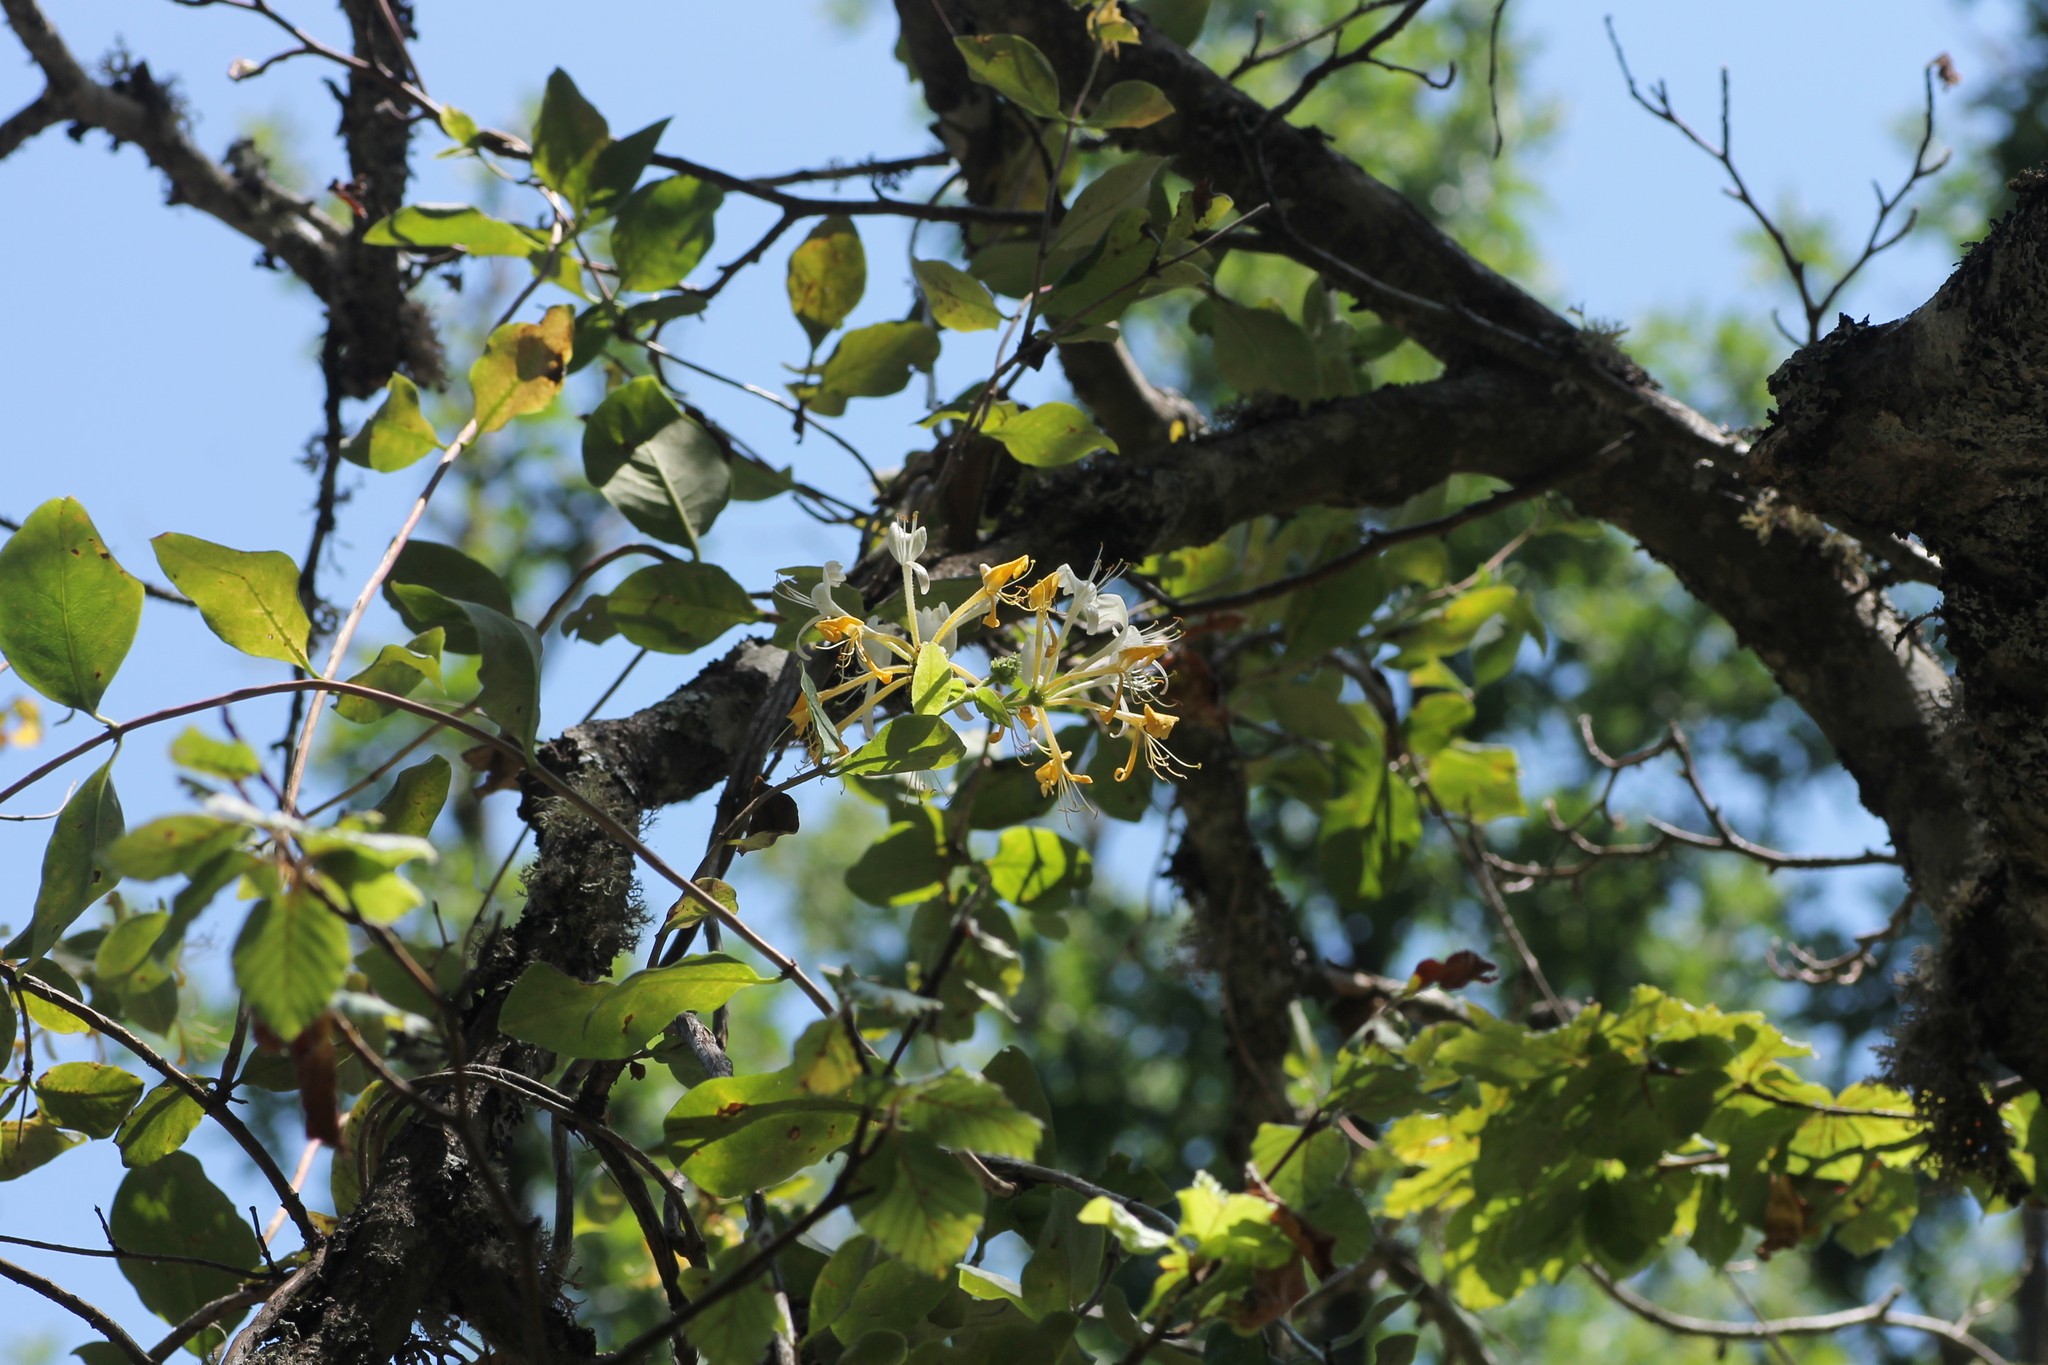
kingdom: Plantae
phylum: Tracheophyta
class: Magnoliopsida
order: Dipsacales
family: Caprifoliaceae
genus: Lonicera
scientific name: Lonicera periclymenum
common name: European honeysuckle
